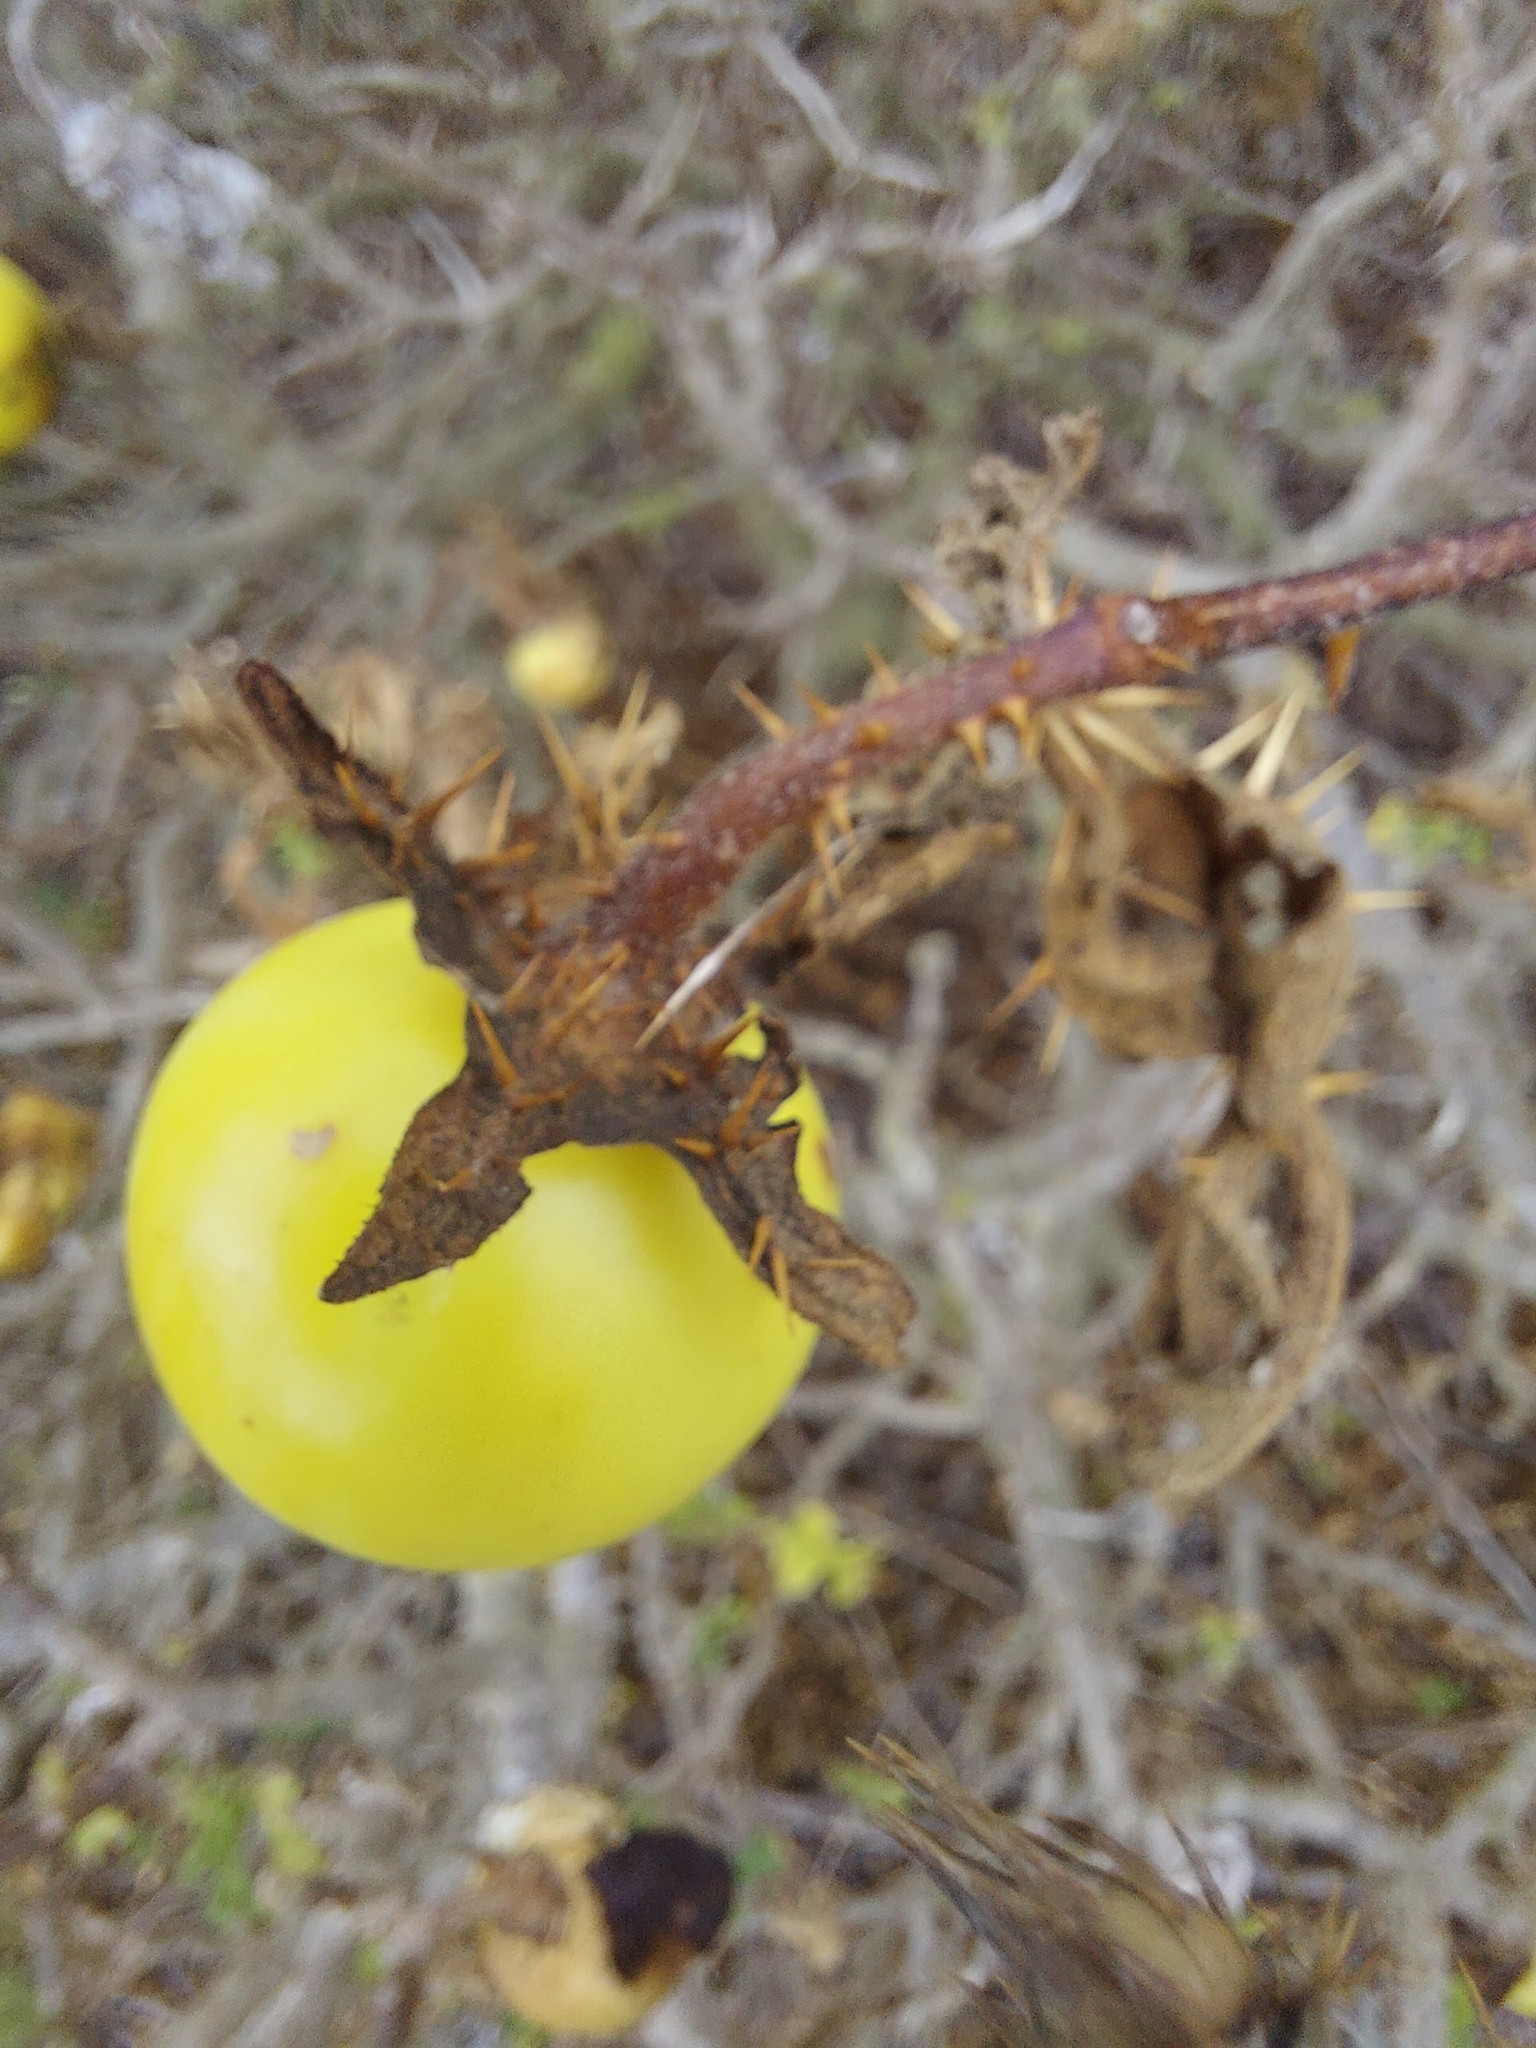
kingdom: Plantae
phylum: Tracheophyta
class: Magnoliopsida
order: Solanales
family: Solanaceae
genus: Solanum
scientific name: Solanum linnaeanum
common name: Nightshade
